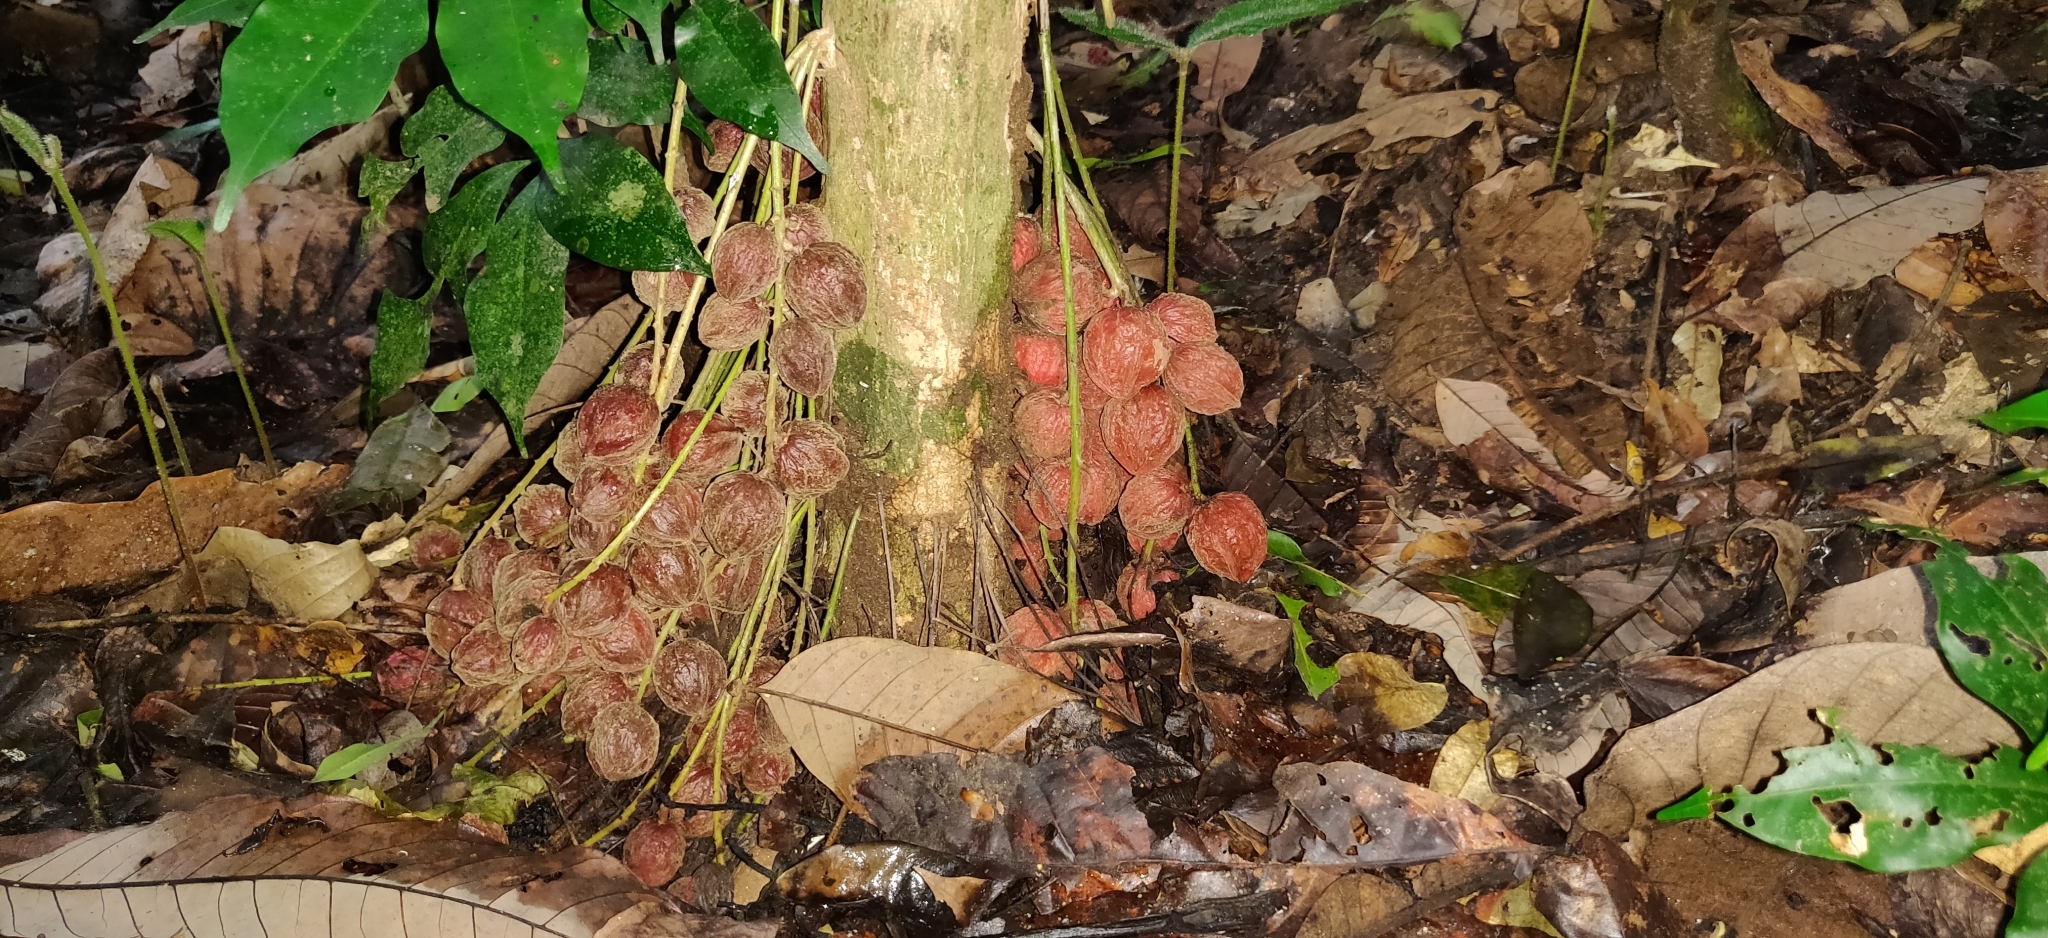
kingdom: Plantae
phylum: Tracheophyta
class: Magnoliopsida
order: Malpighiales
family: Phyllanthaceae
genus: Baccaurea
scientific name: Baccaurea courtallensis
